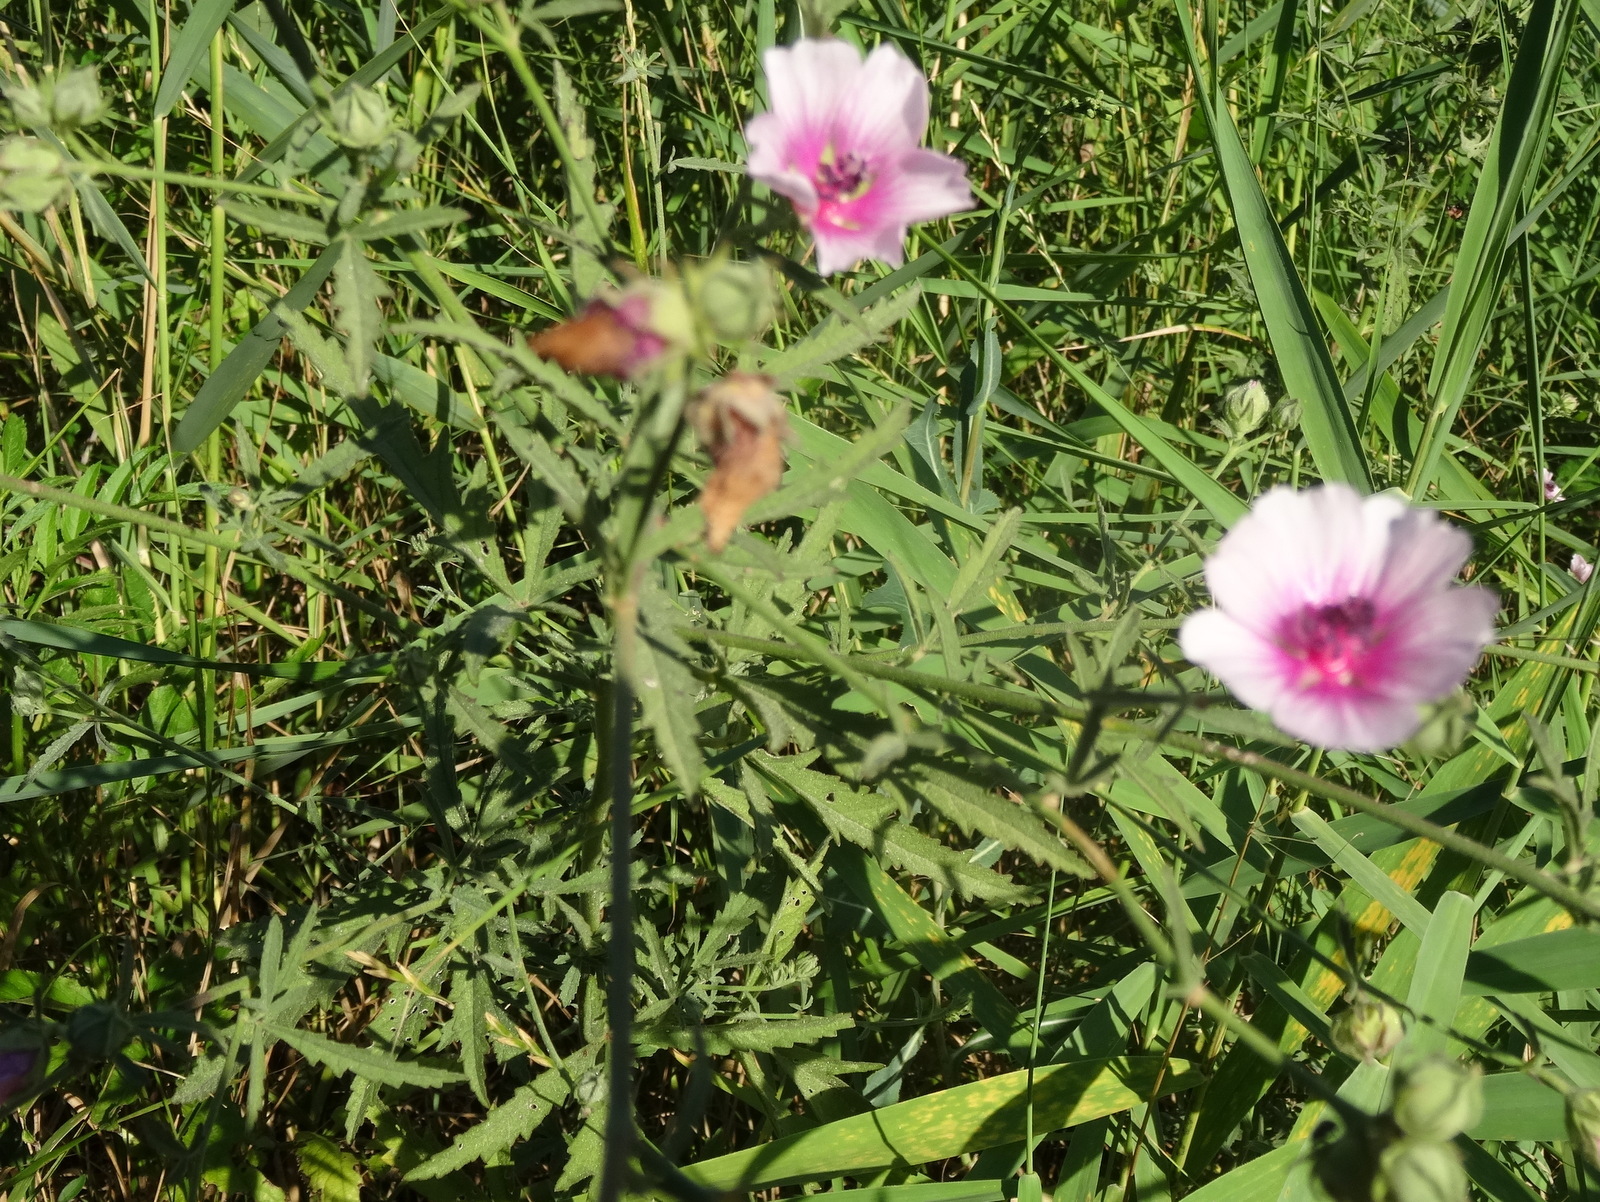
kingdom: Plantae
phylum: Tracheophyta
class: Magnoliopsida
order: Malvales
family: Malvaceae
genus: Althaea
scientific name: Althaea cannabina
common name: Palm-leaf marshmallow
